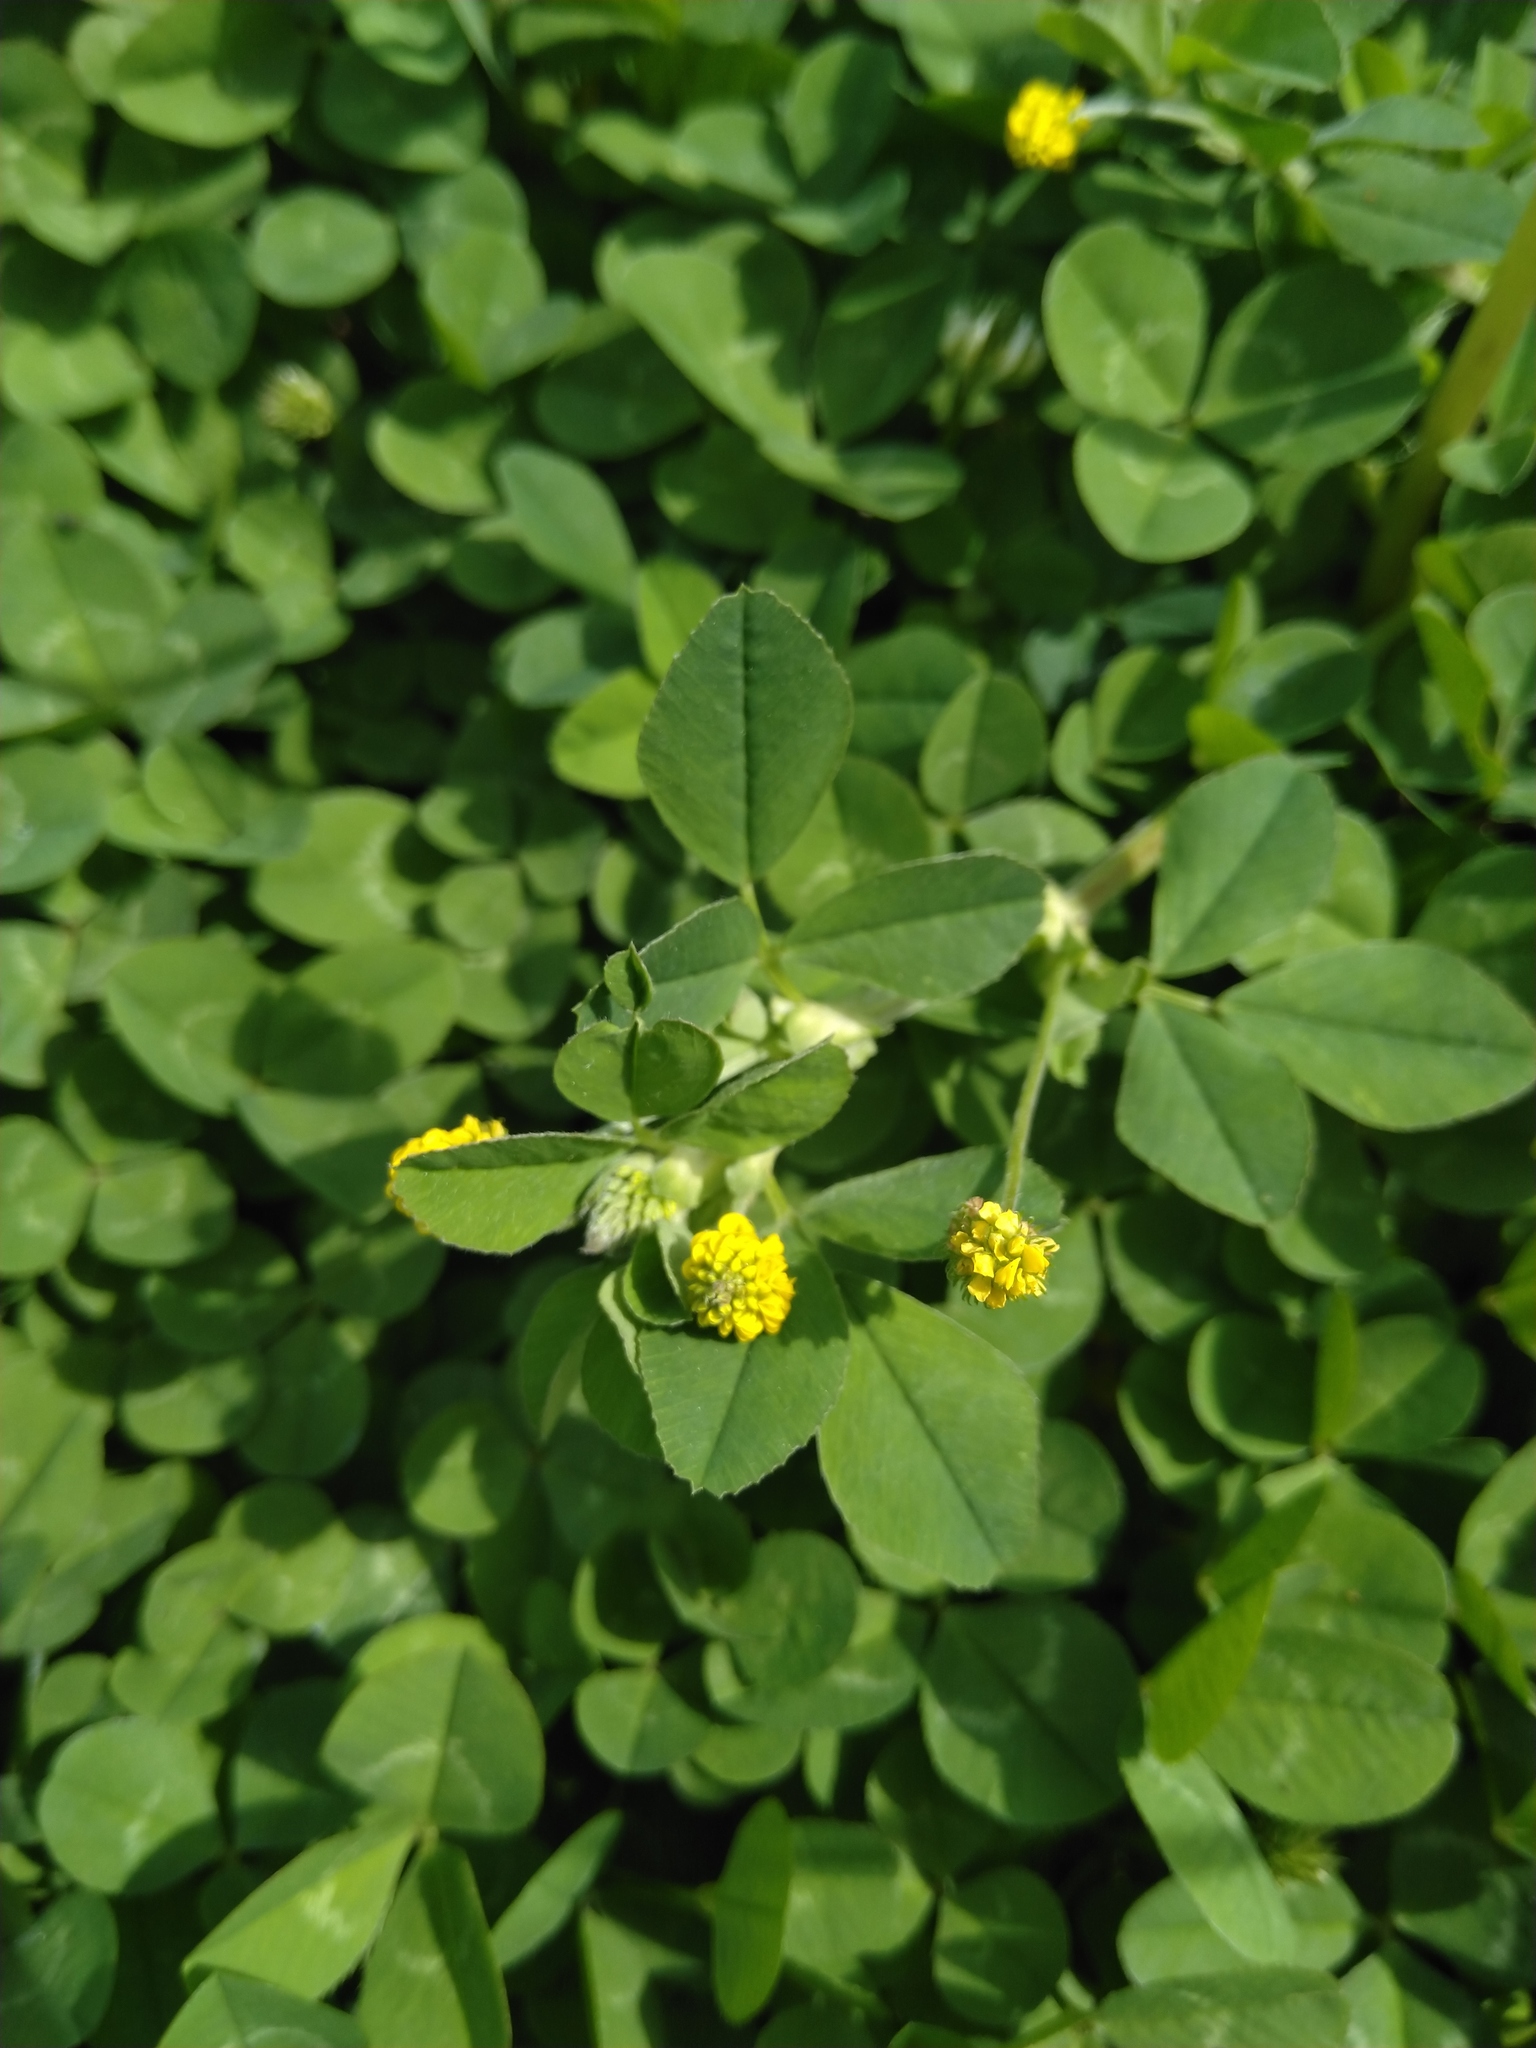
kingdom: Plantae
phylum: Tracheophyta
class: Magnoliopsida
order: Fabales
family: Fabaceae
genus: Medicago
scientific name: Medicago lupulina
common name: Black medick
